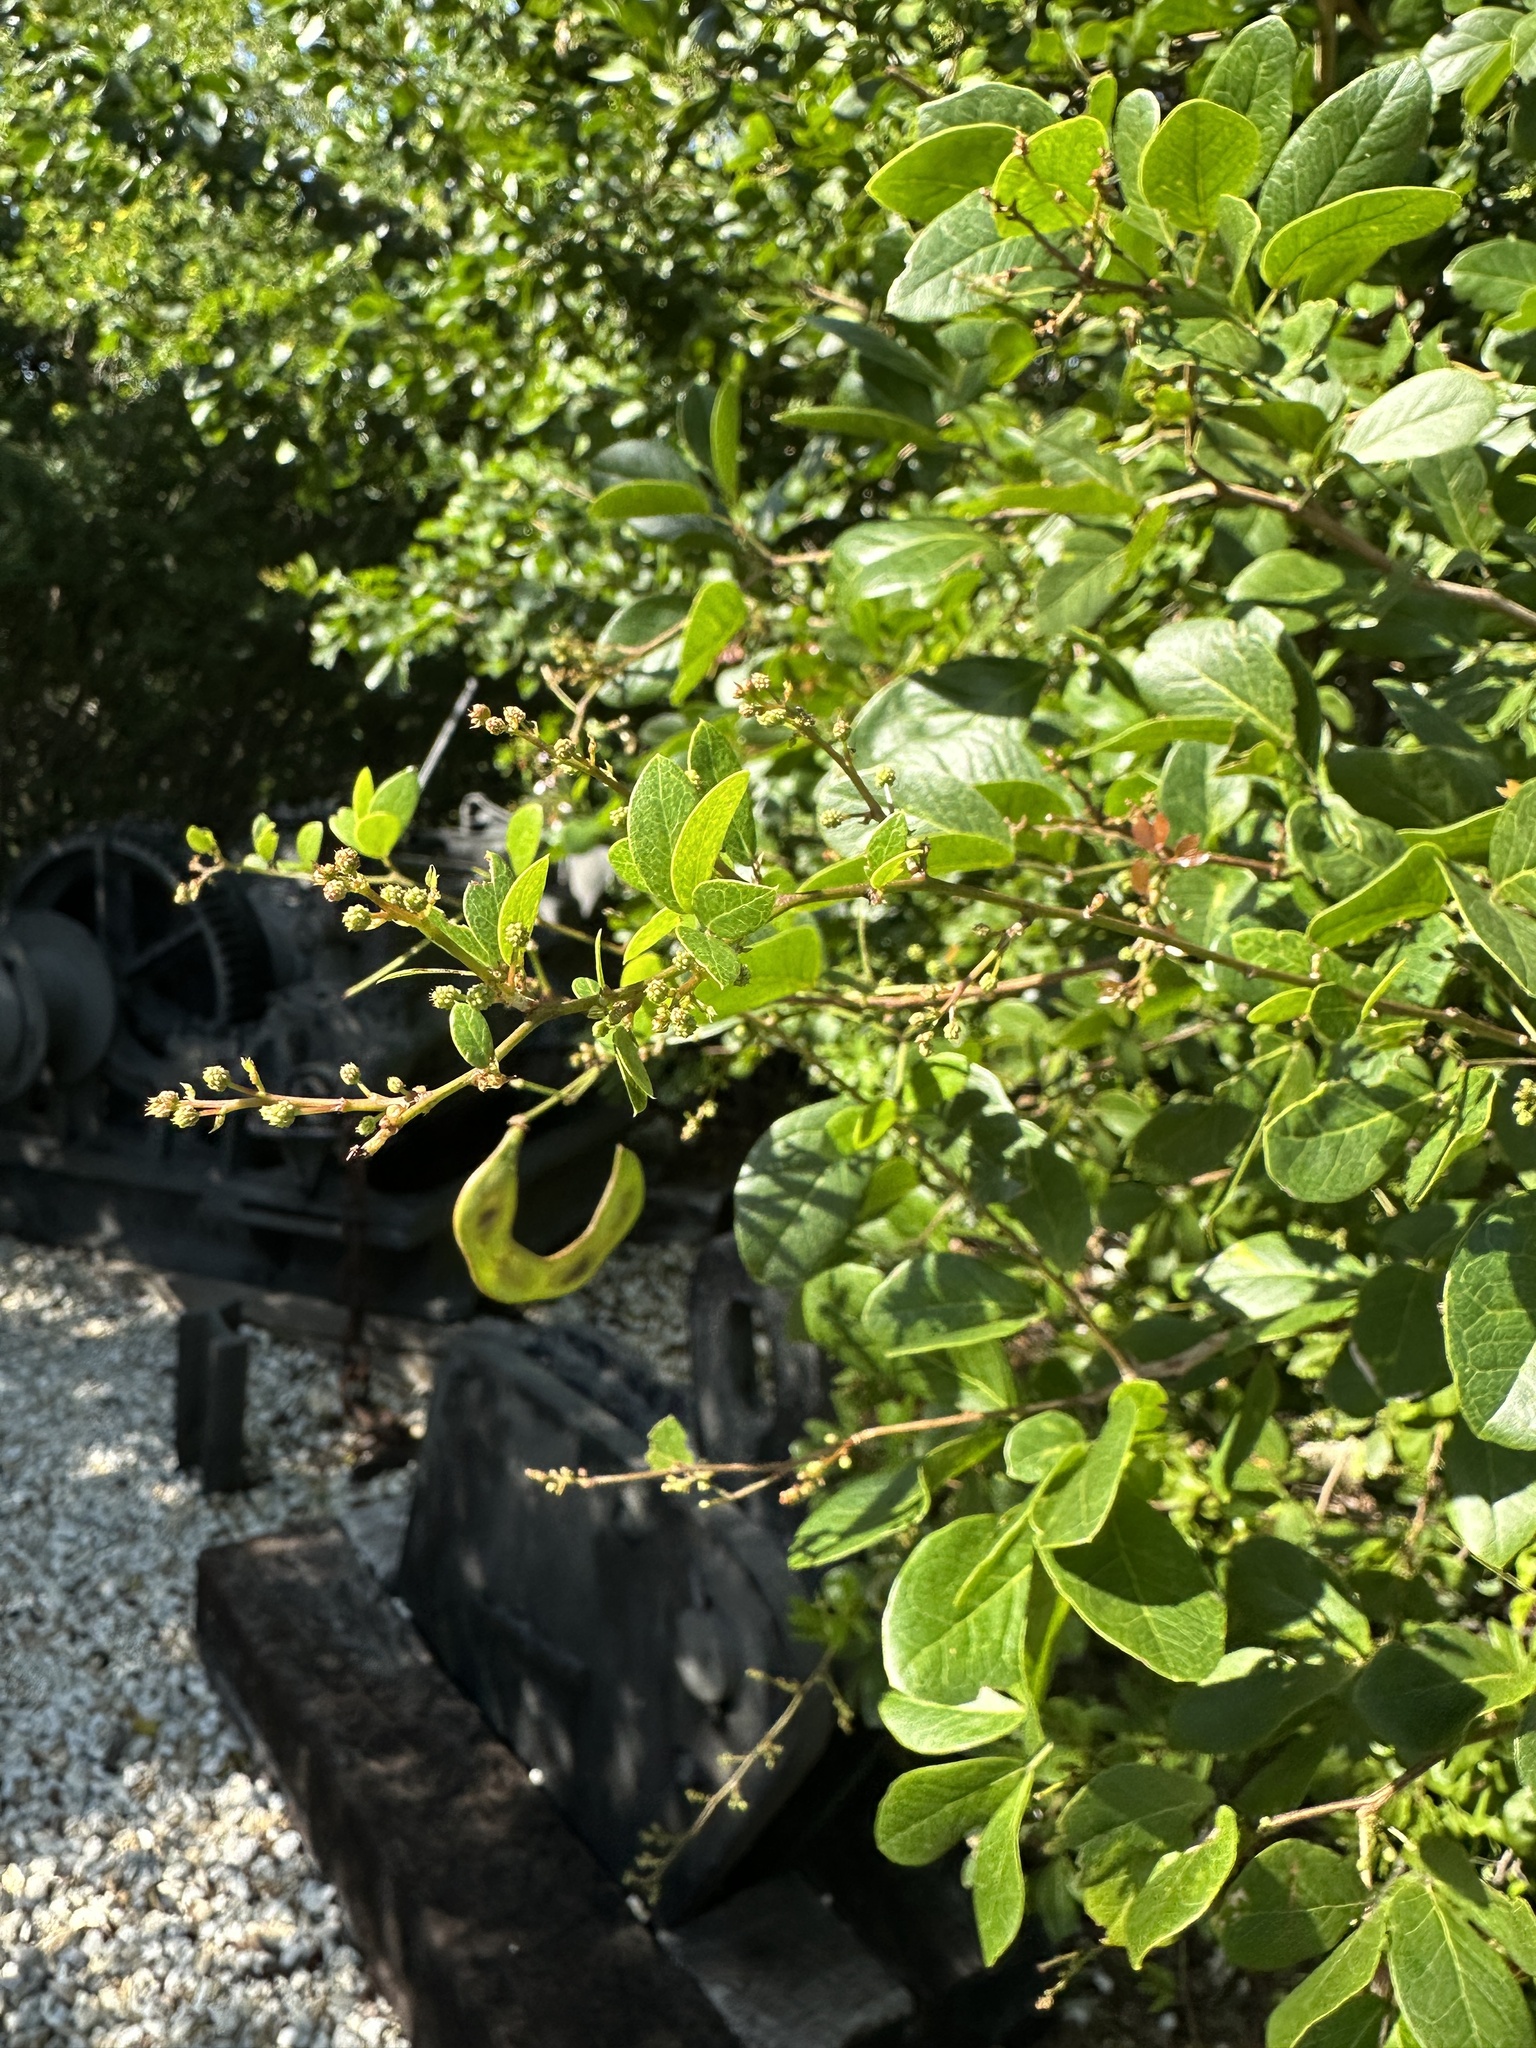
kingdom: Plantae
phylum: Tracheophyta
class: Magnoliopsida
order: Fabales
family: Fabaceae
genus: Pithecellobium
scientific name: Pithecellobium keyense
